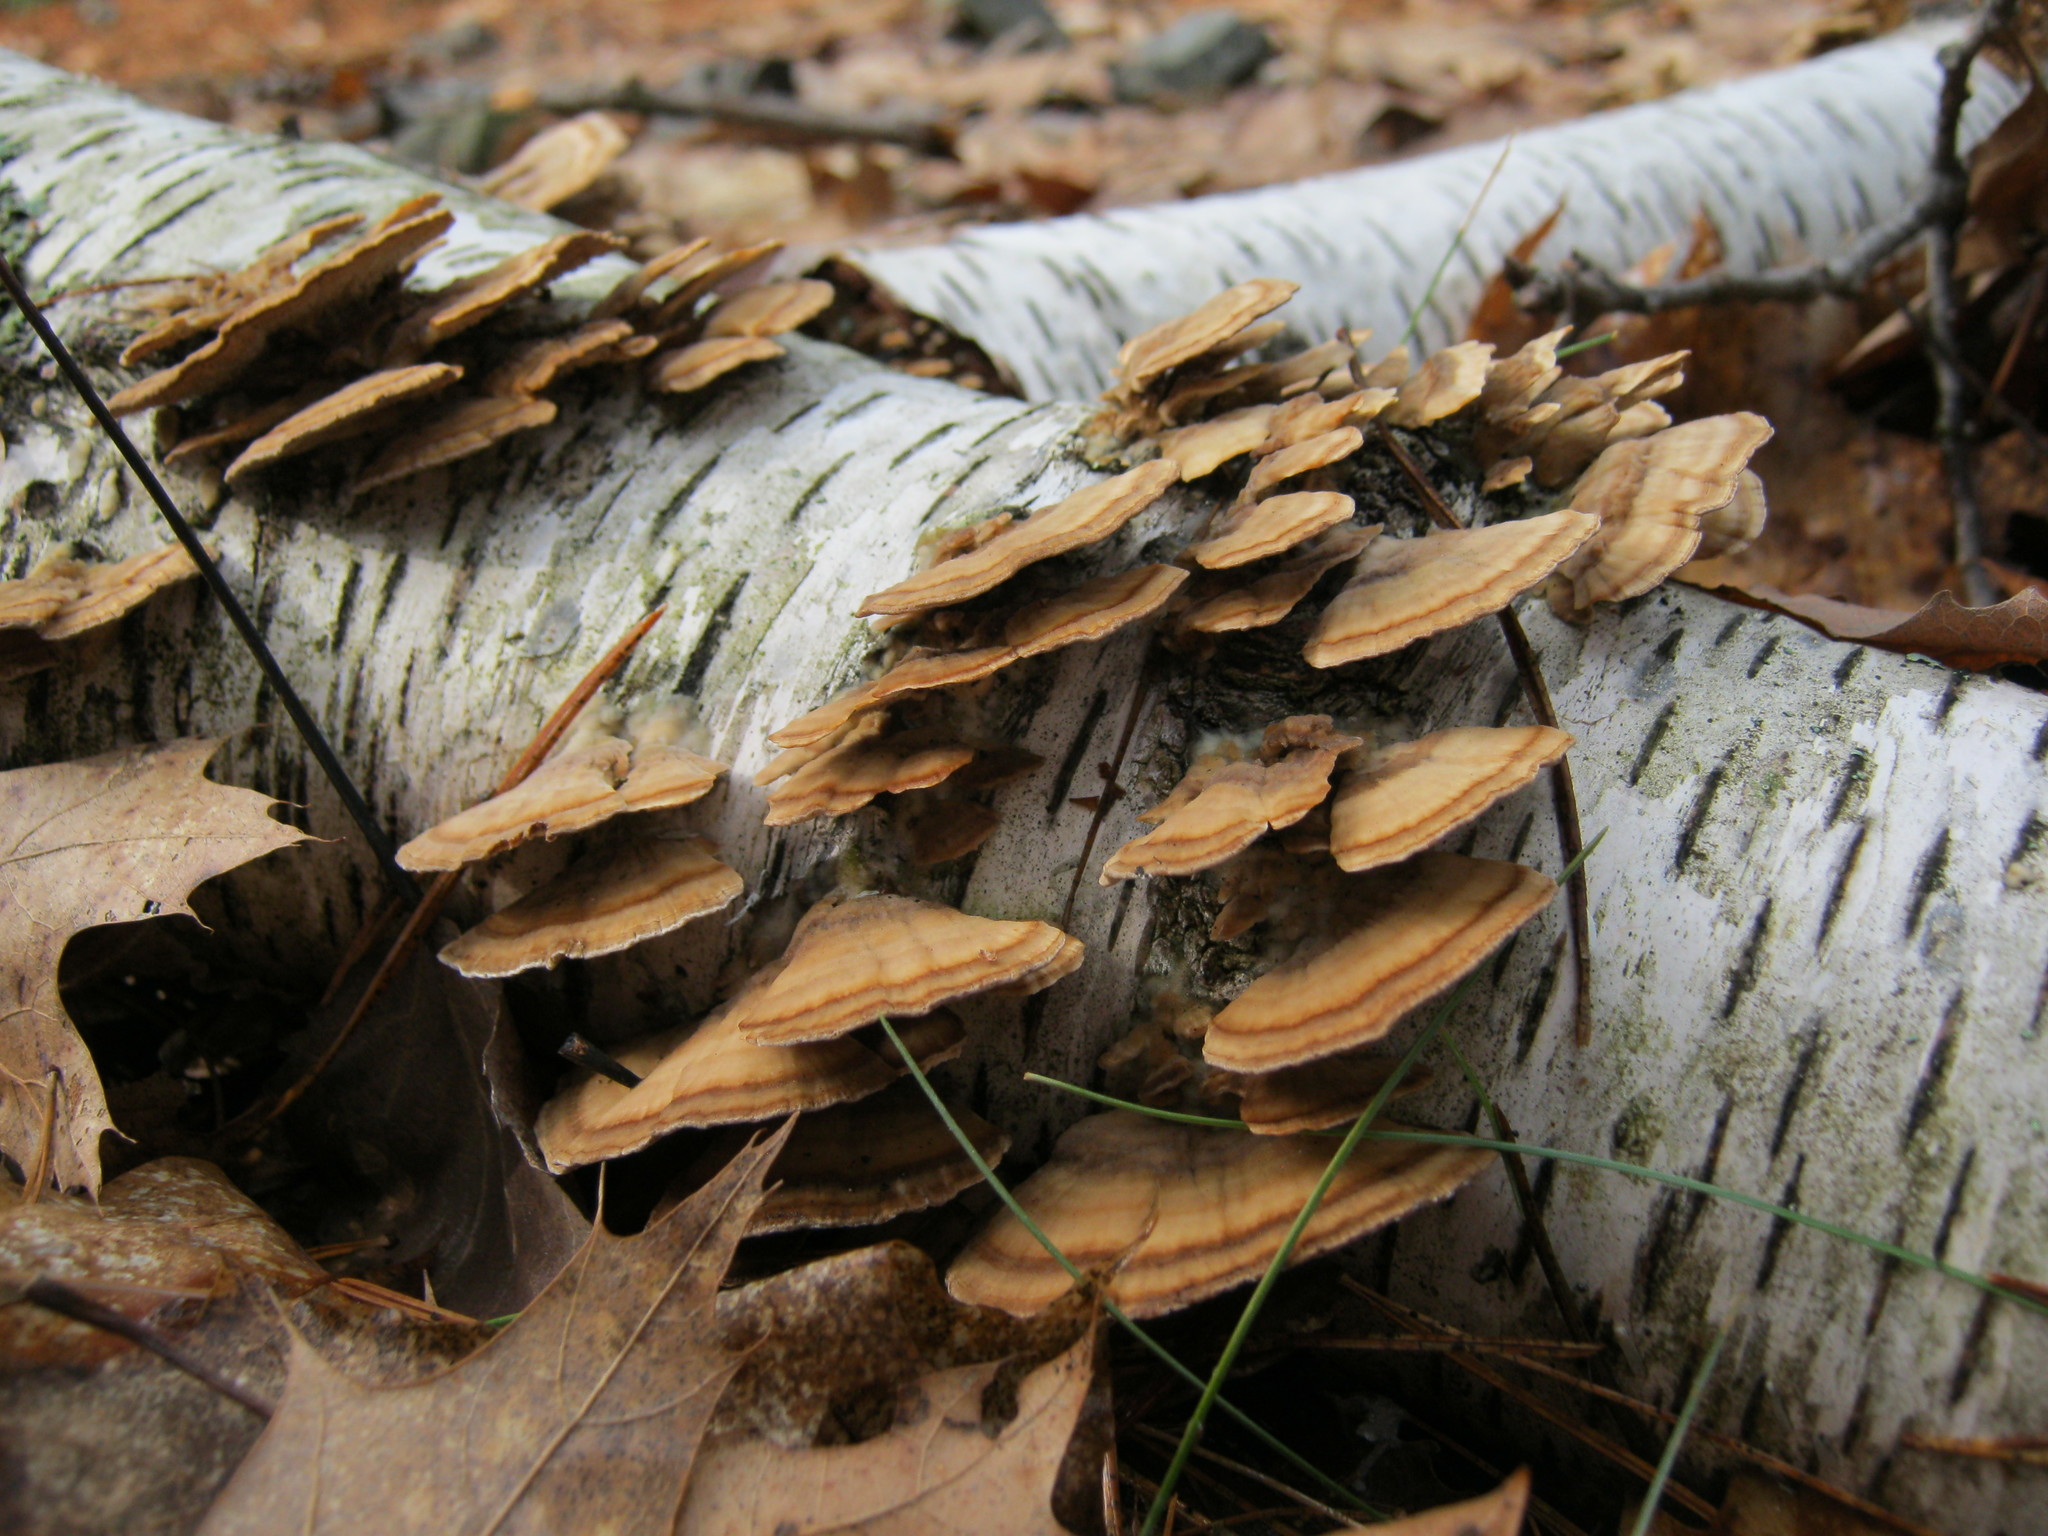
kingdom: Fungi
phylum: Basidiomycota
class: Agaricomycetes
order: Hymenochaetales
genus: Trichaptum
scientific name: Trichaptum biforme
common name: Violet-toothed polypore
